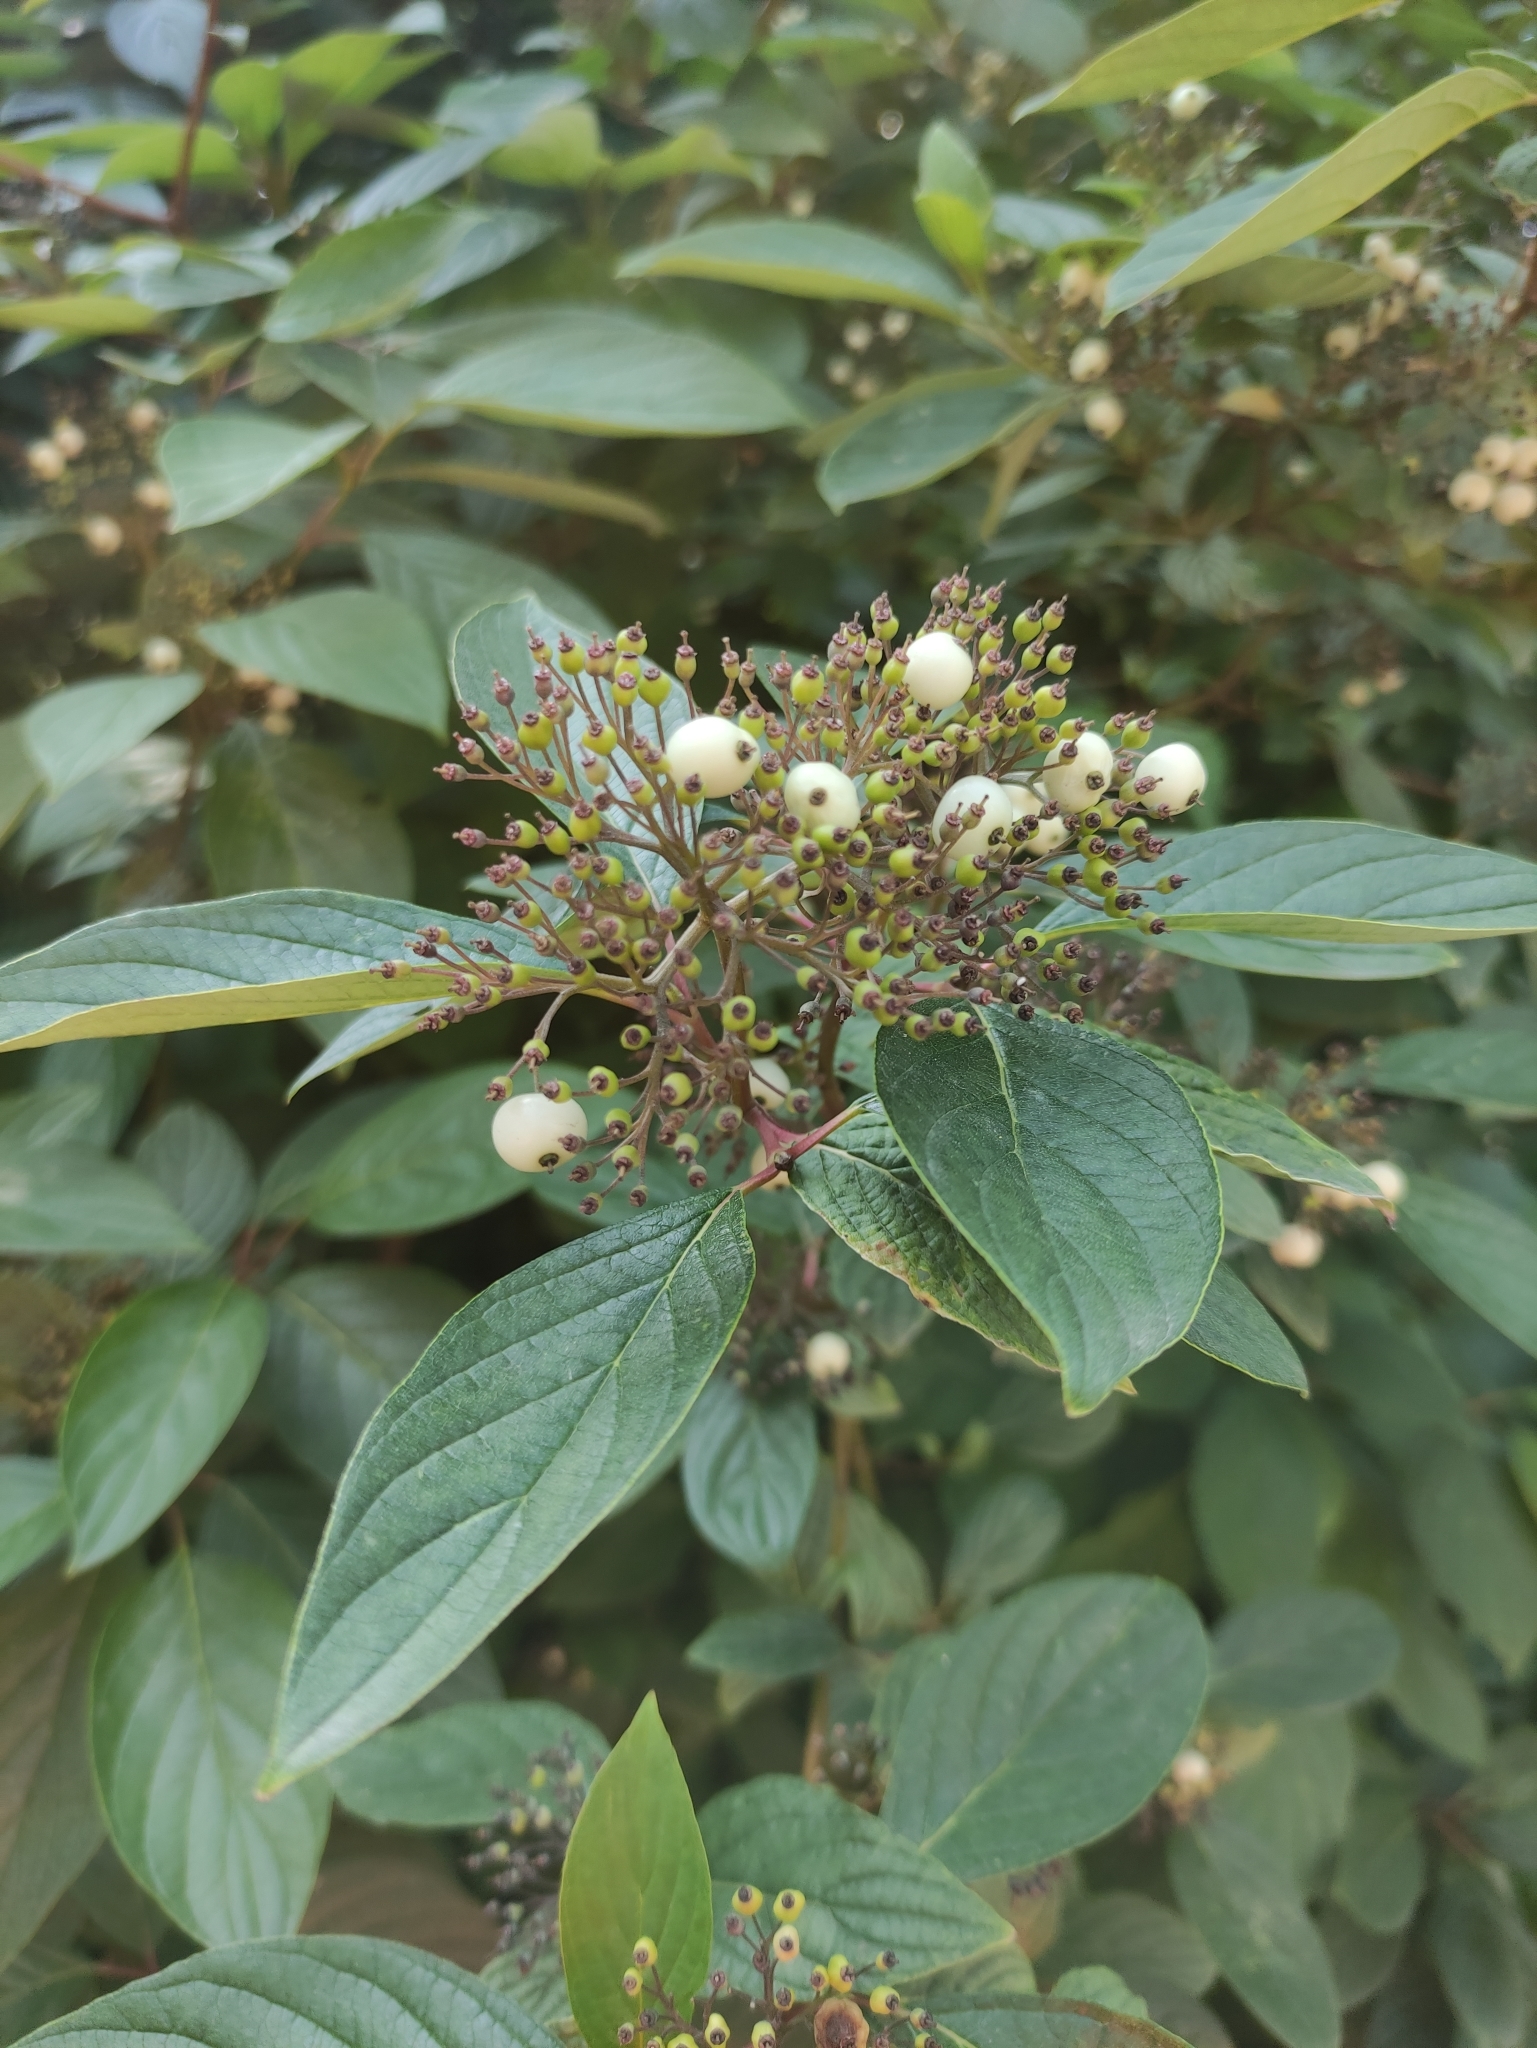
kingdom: Plantae
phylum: Tracheophyta
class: Magnoliopsida
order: Cornales
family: Cornaceae
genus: Cornus
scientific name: Cornus alba
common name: White dogwood
